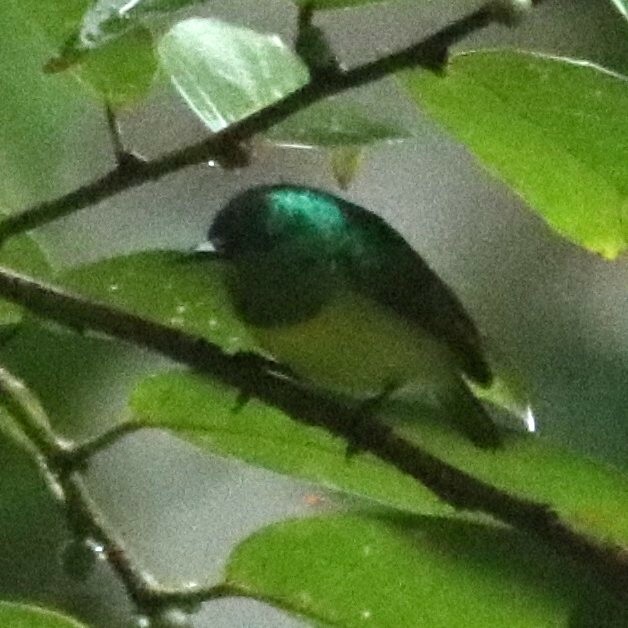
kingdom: Animalia
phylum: Chordata
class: Aves
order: Passeriformes
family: Nectariniidae
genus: Hedydipna
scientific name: Hedydipna collaris
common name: Collared sunbird
